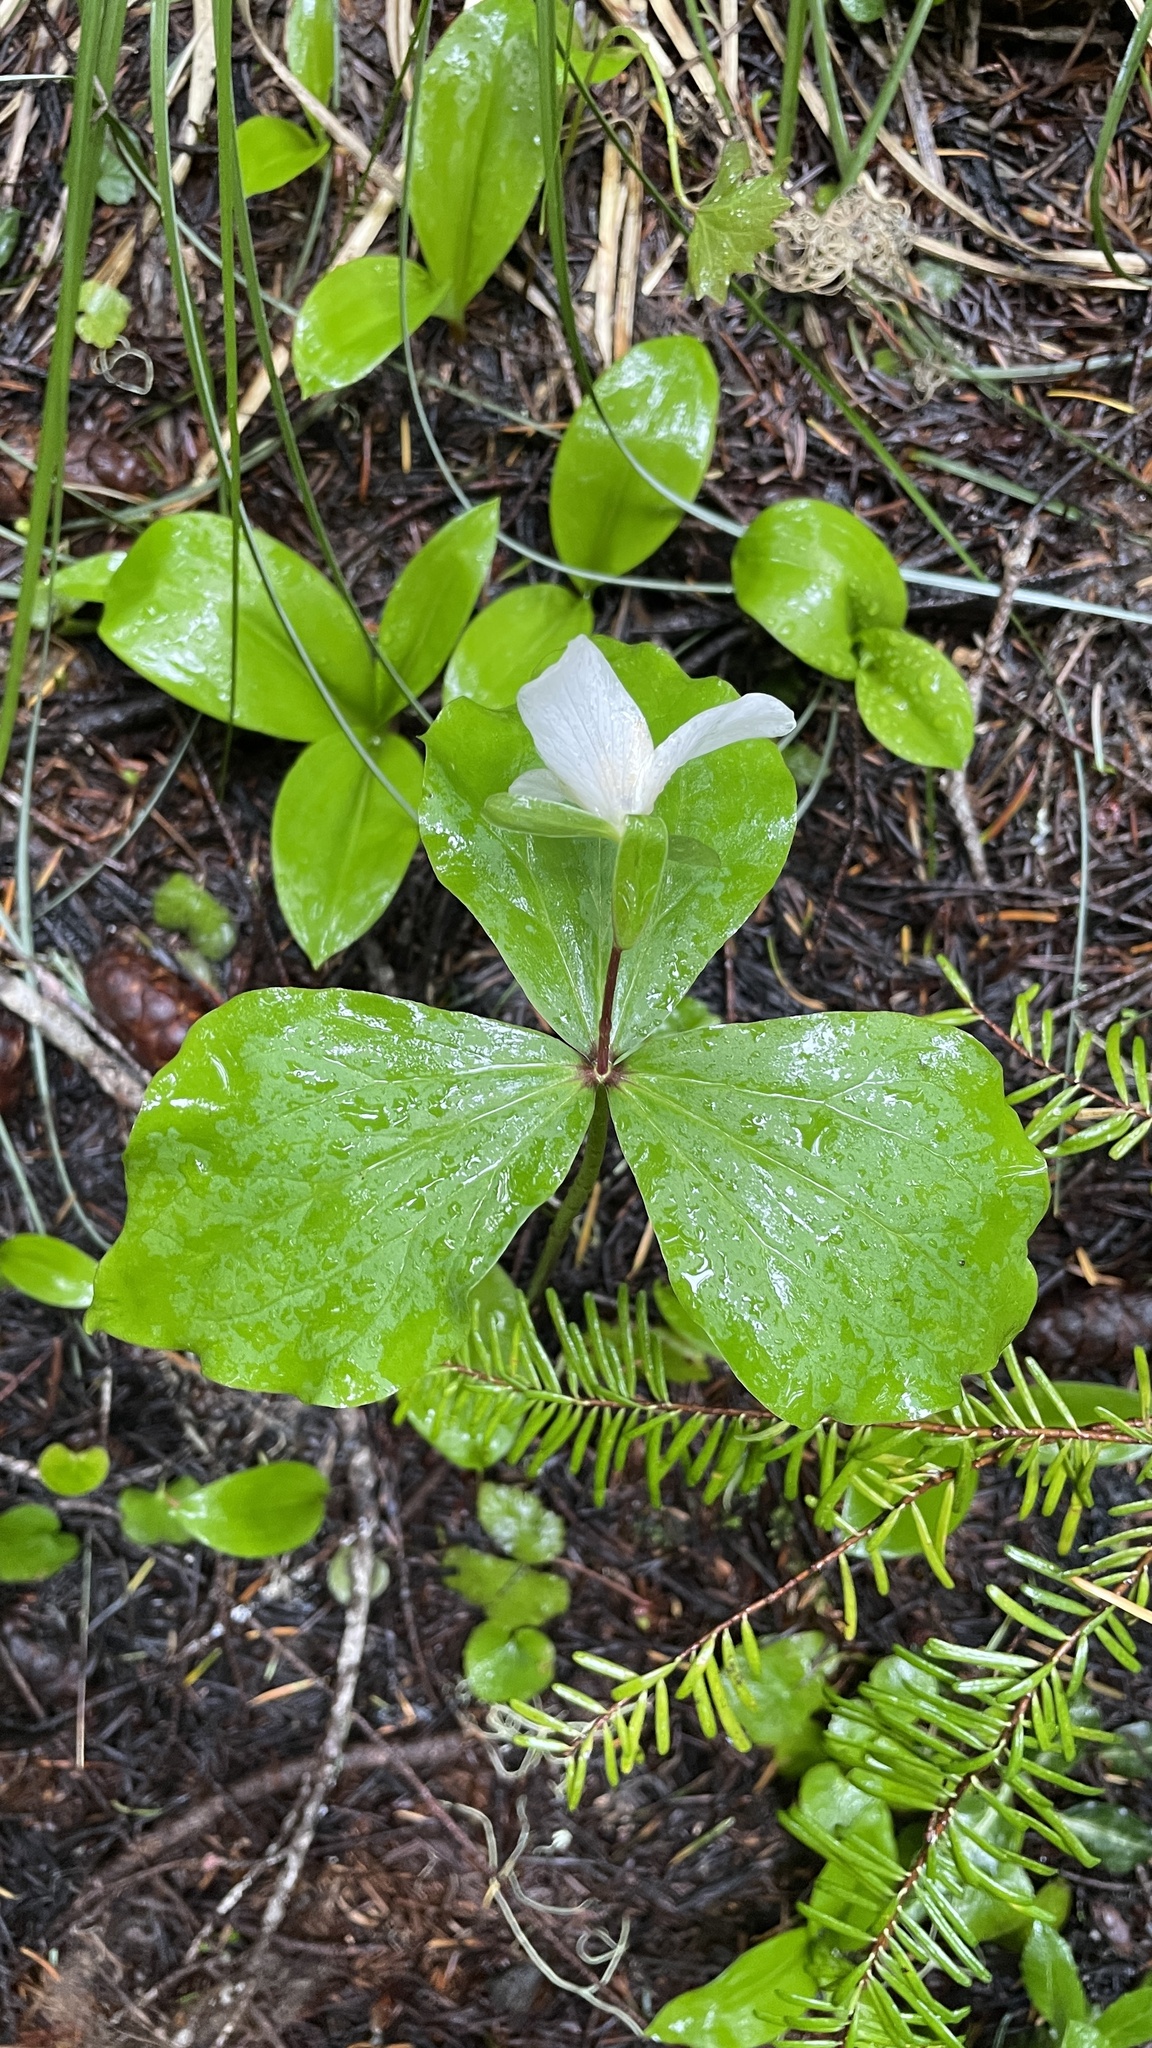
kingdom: Plantae
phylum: Tracheophyta
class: Liliopsida
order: Liliales
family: Melanthiaceae
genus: Trillium
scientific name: Trillium ovatum
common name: Pacific trillium
